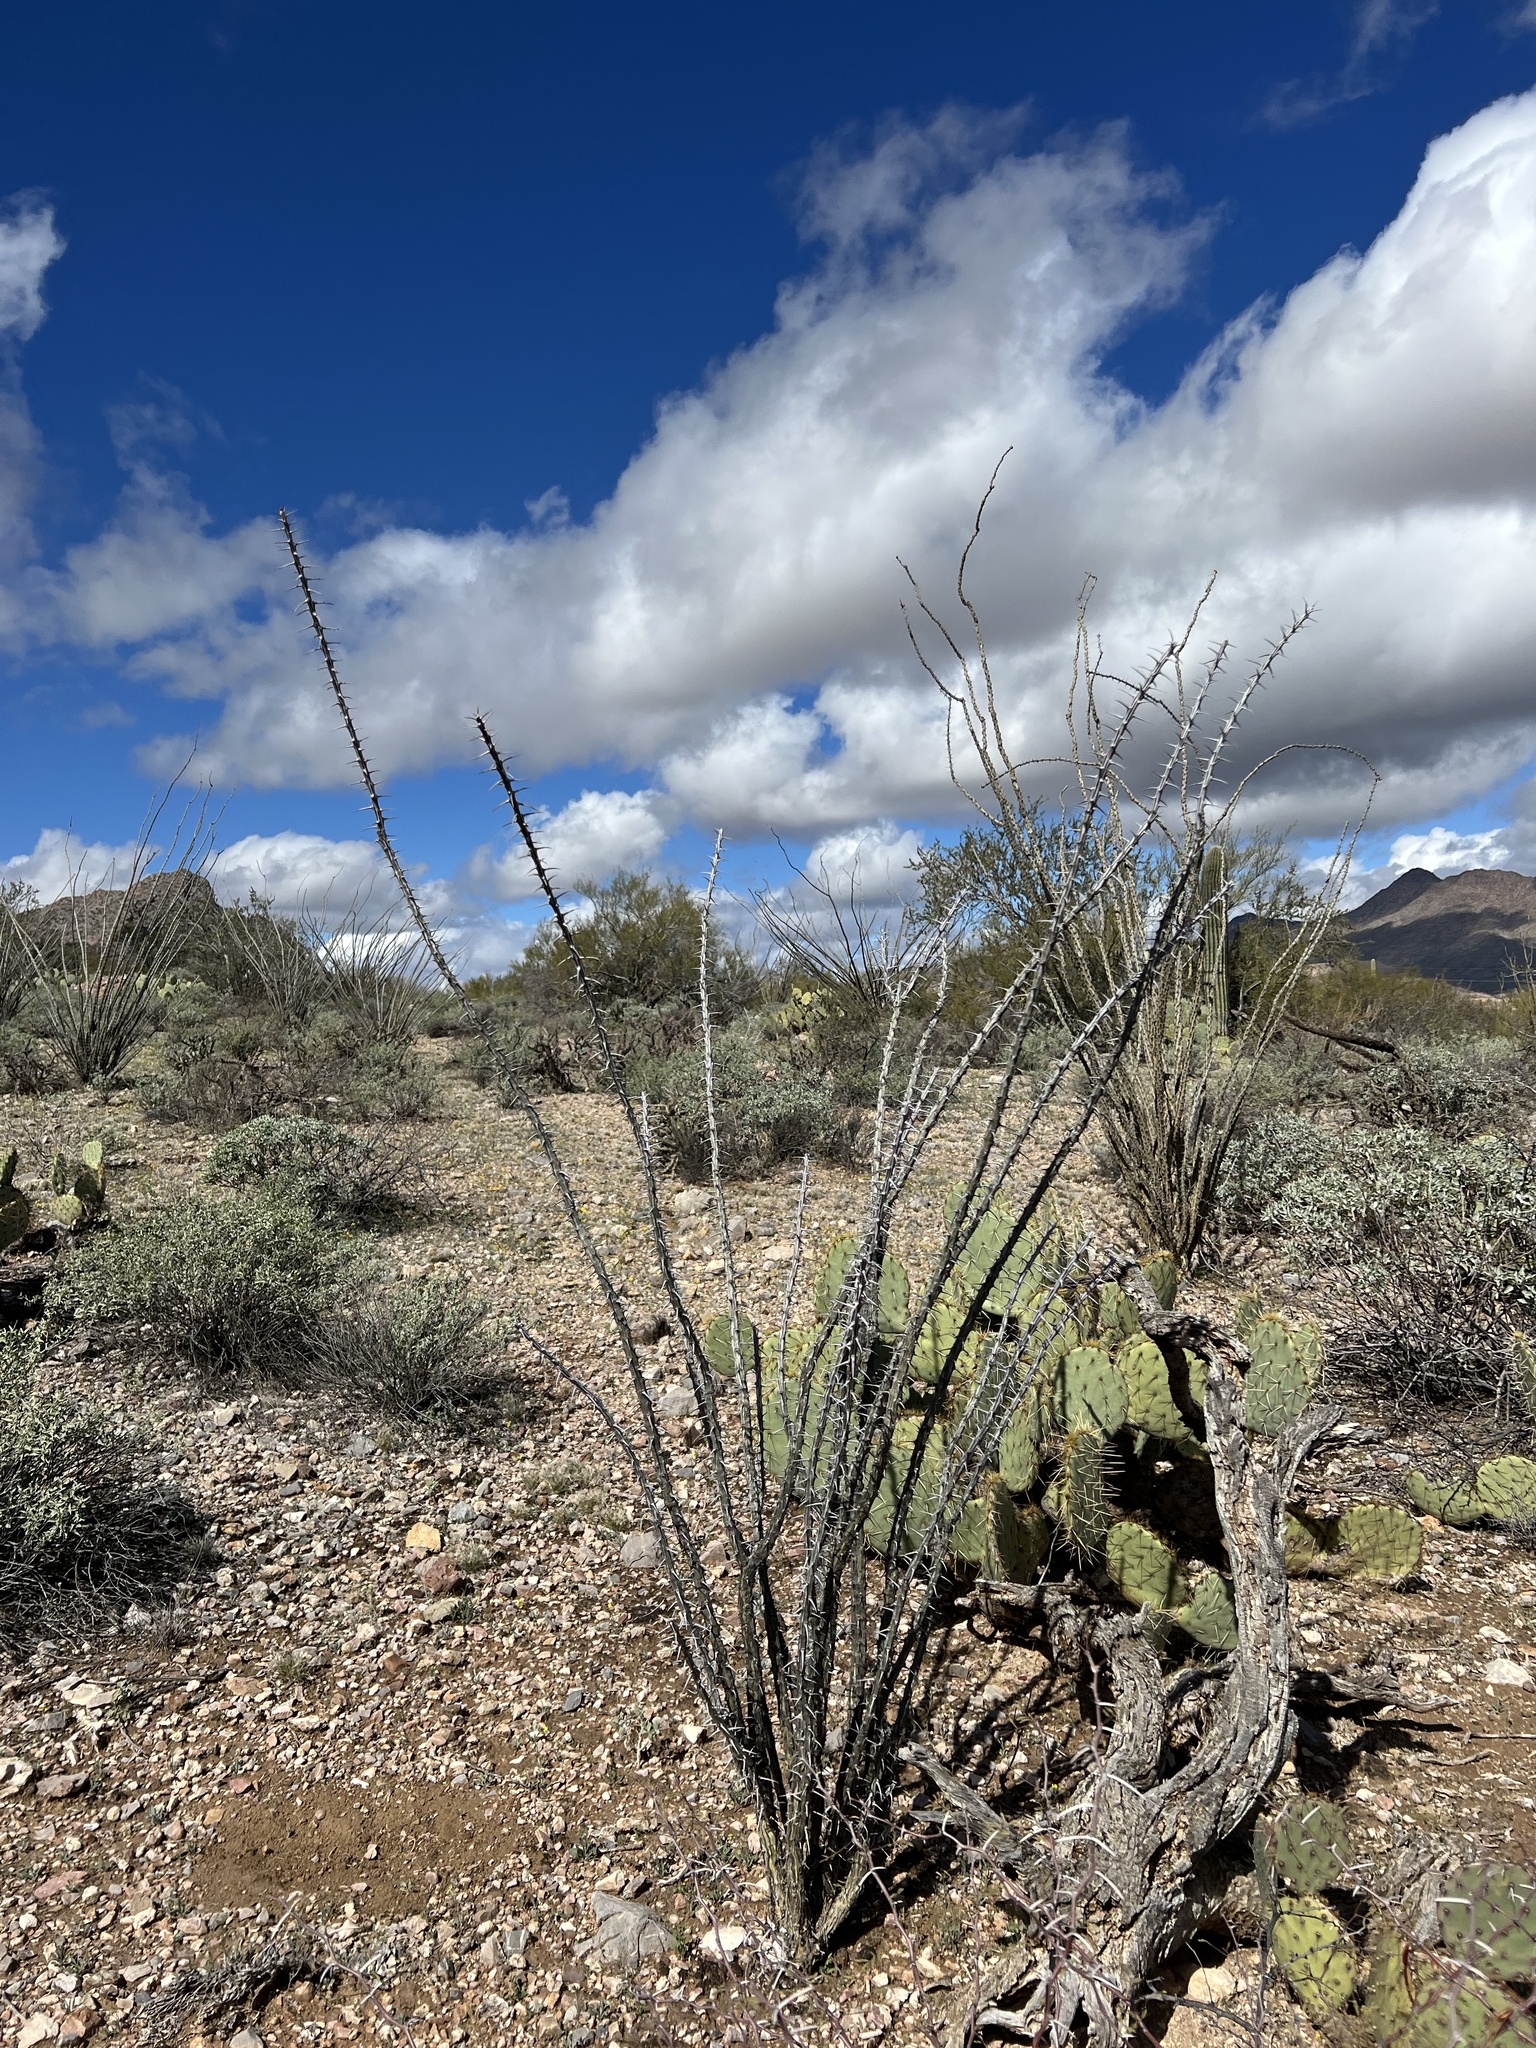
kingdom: Plantae
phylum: Tracheophyta
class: Magnoliopsida
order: Ericales
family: Fouquieriaceae
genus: Fouquieria
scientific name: Fouquieria splendens
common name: Vine-cactus
